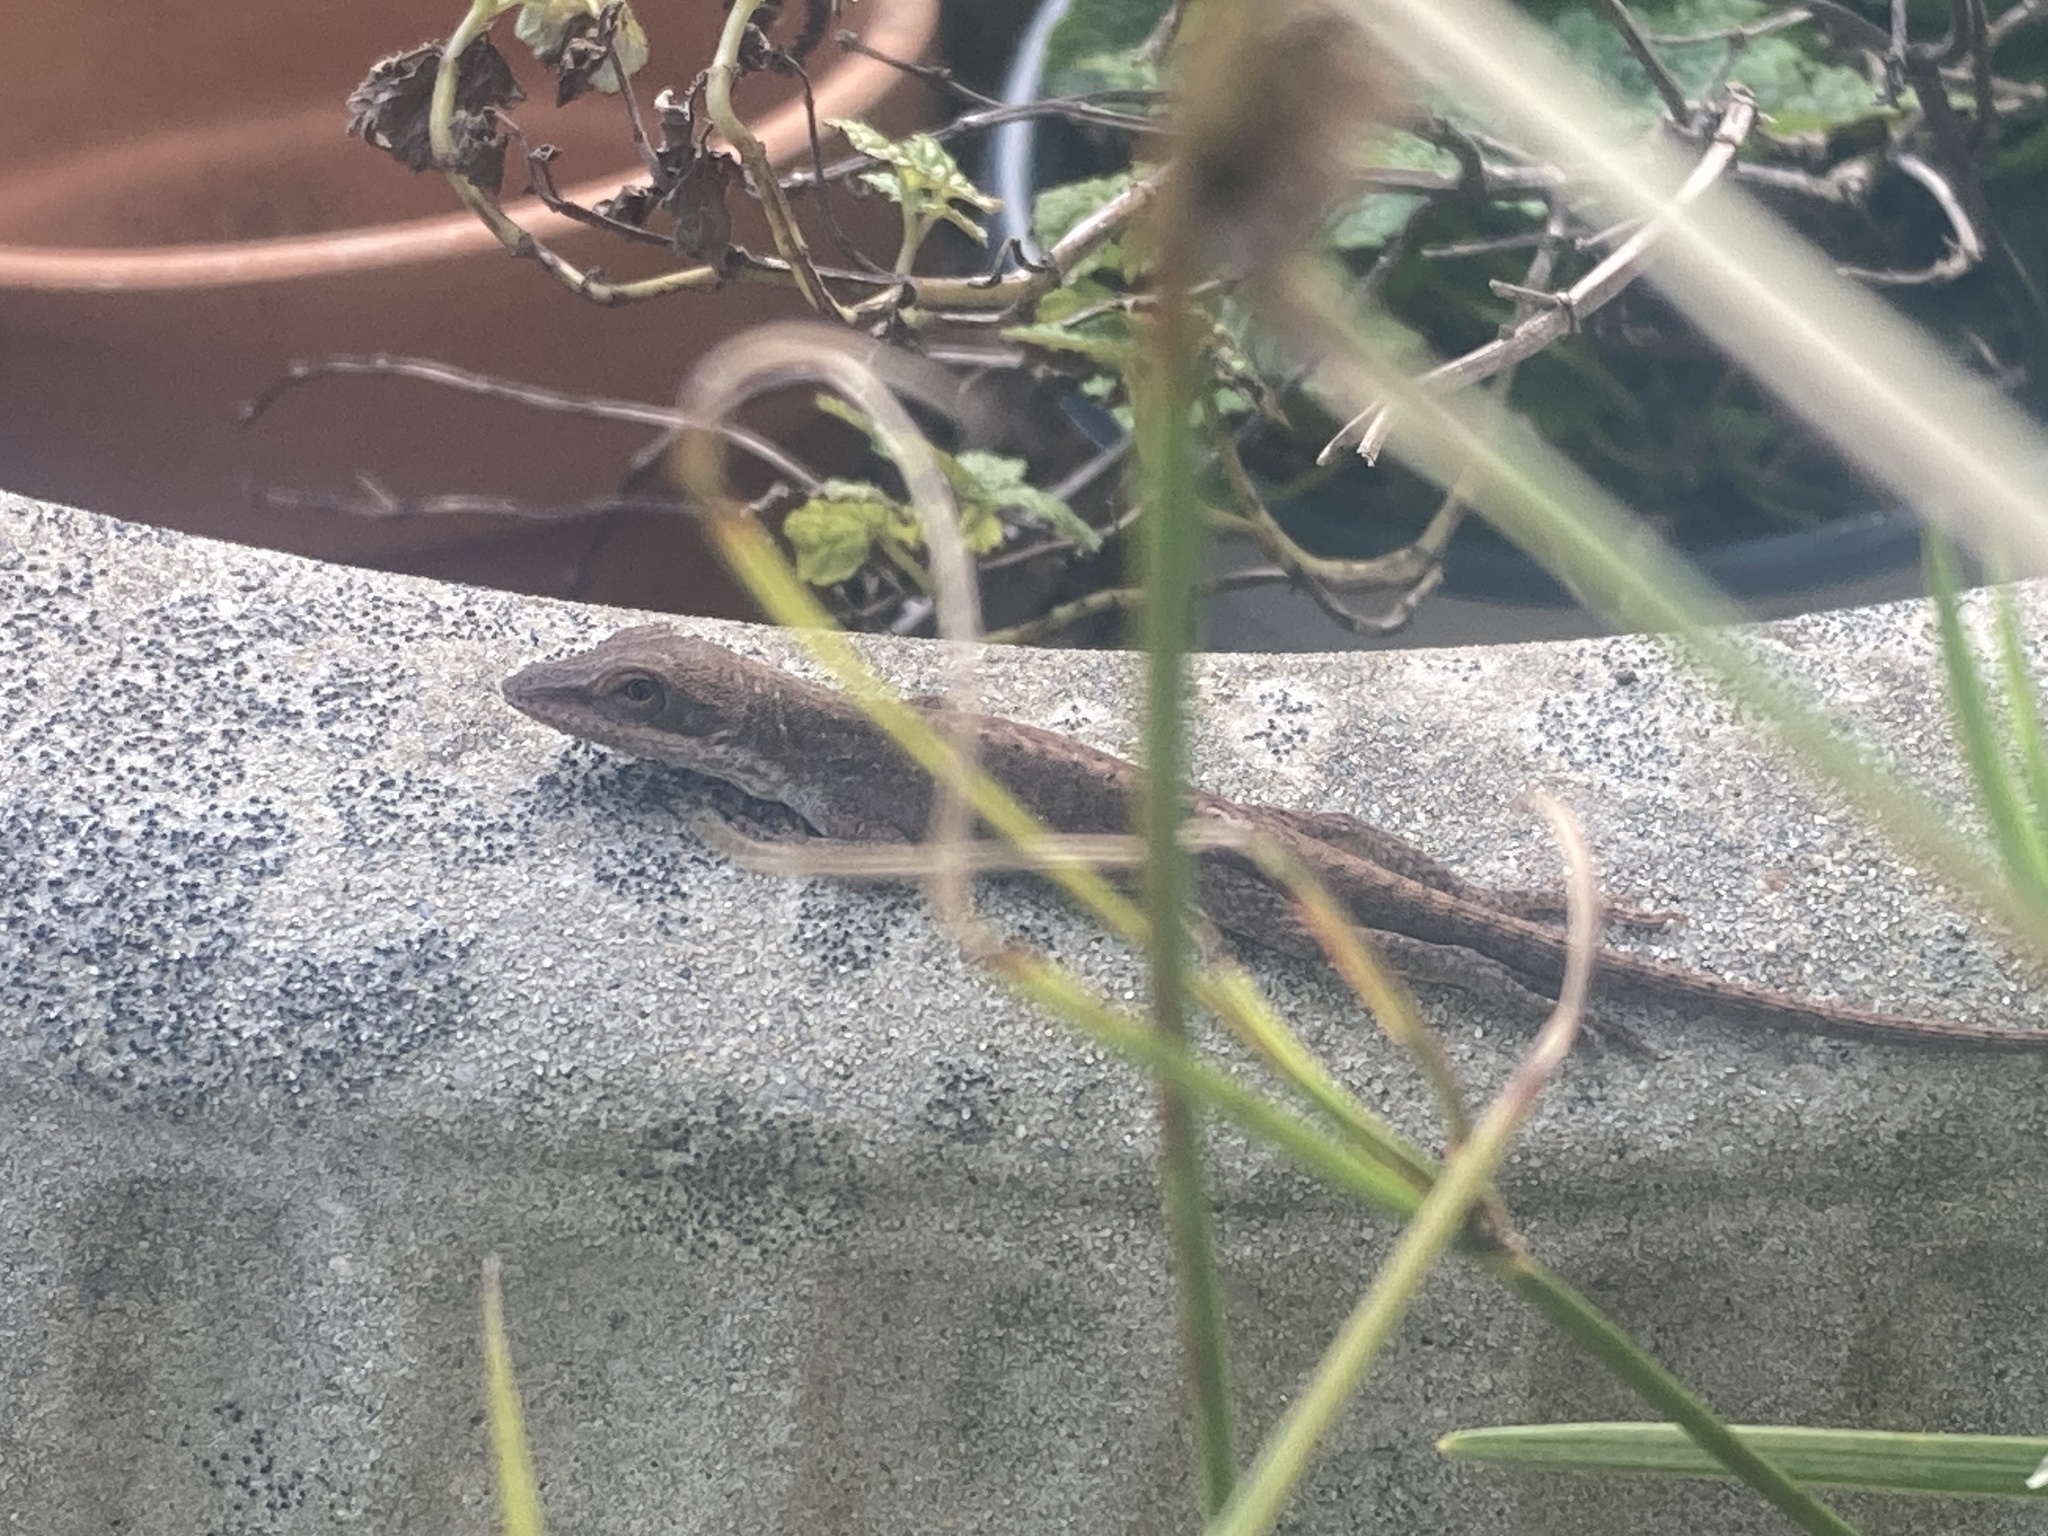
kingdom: Animalia
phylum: Chordata
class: Squamata
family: Dactyloidae
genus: Anolis
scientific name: Anolis carolinensis
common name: Green anole
